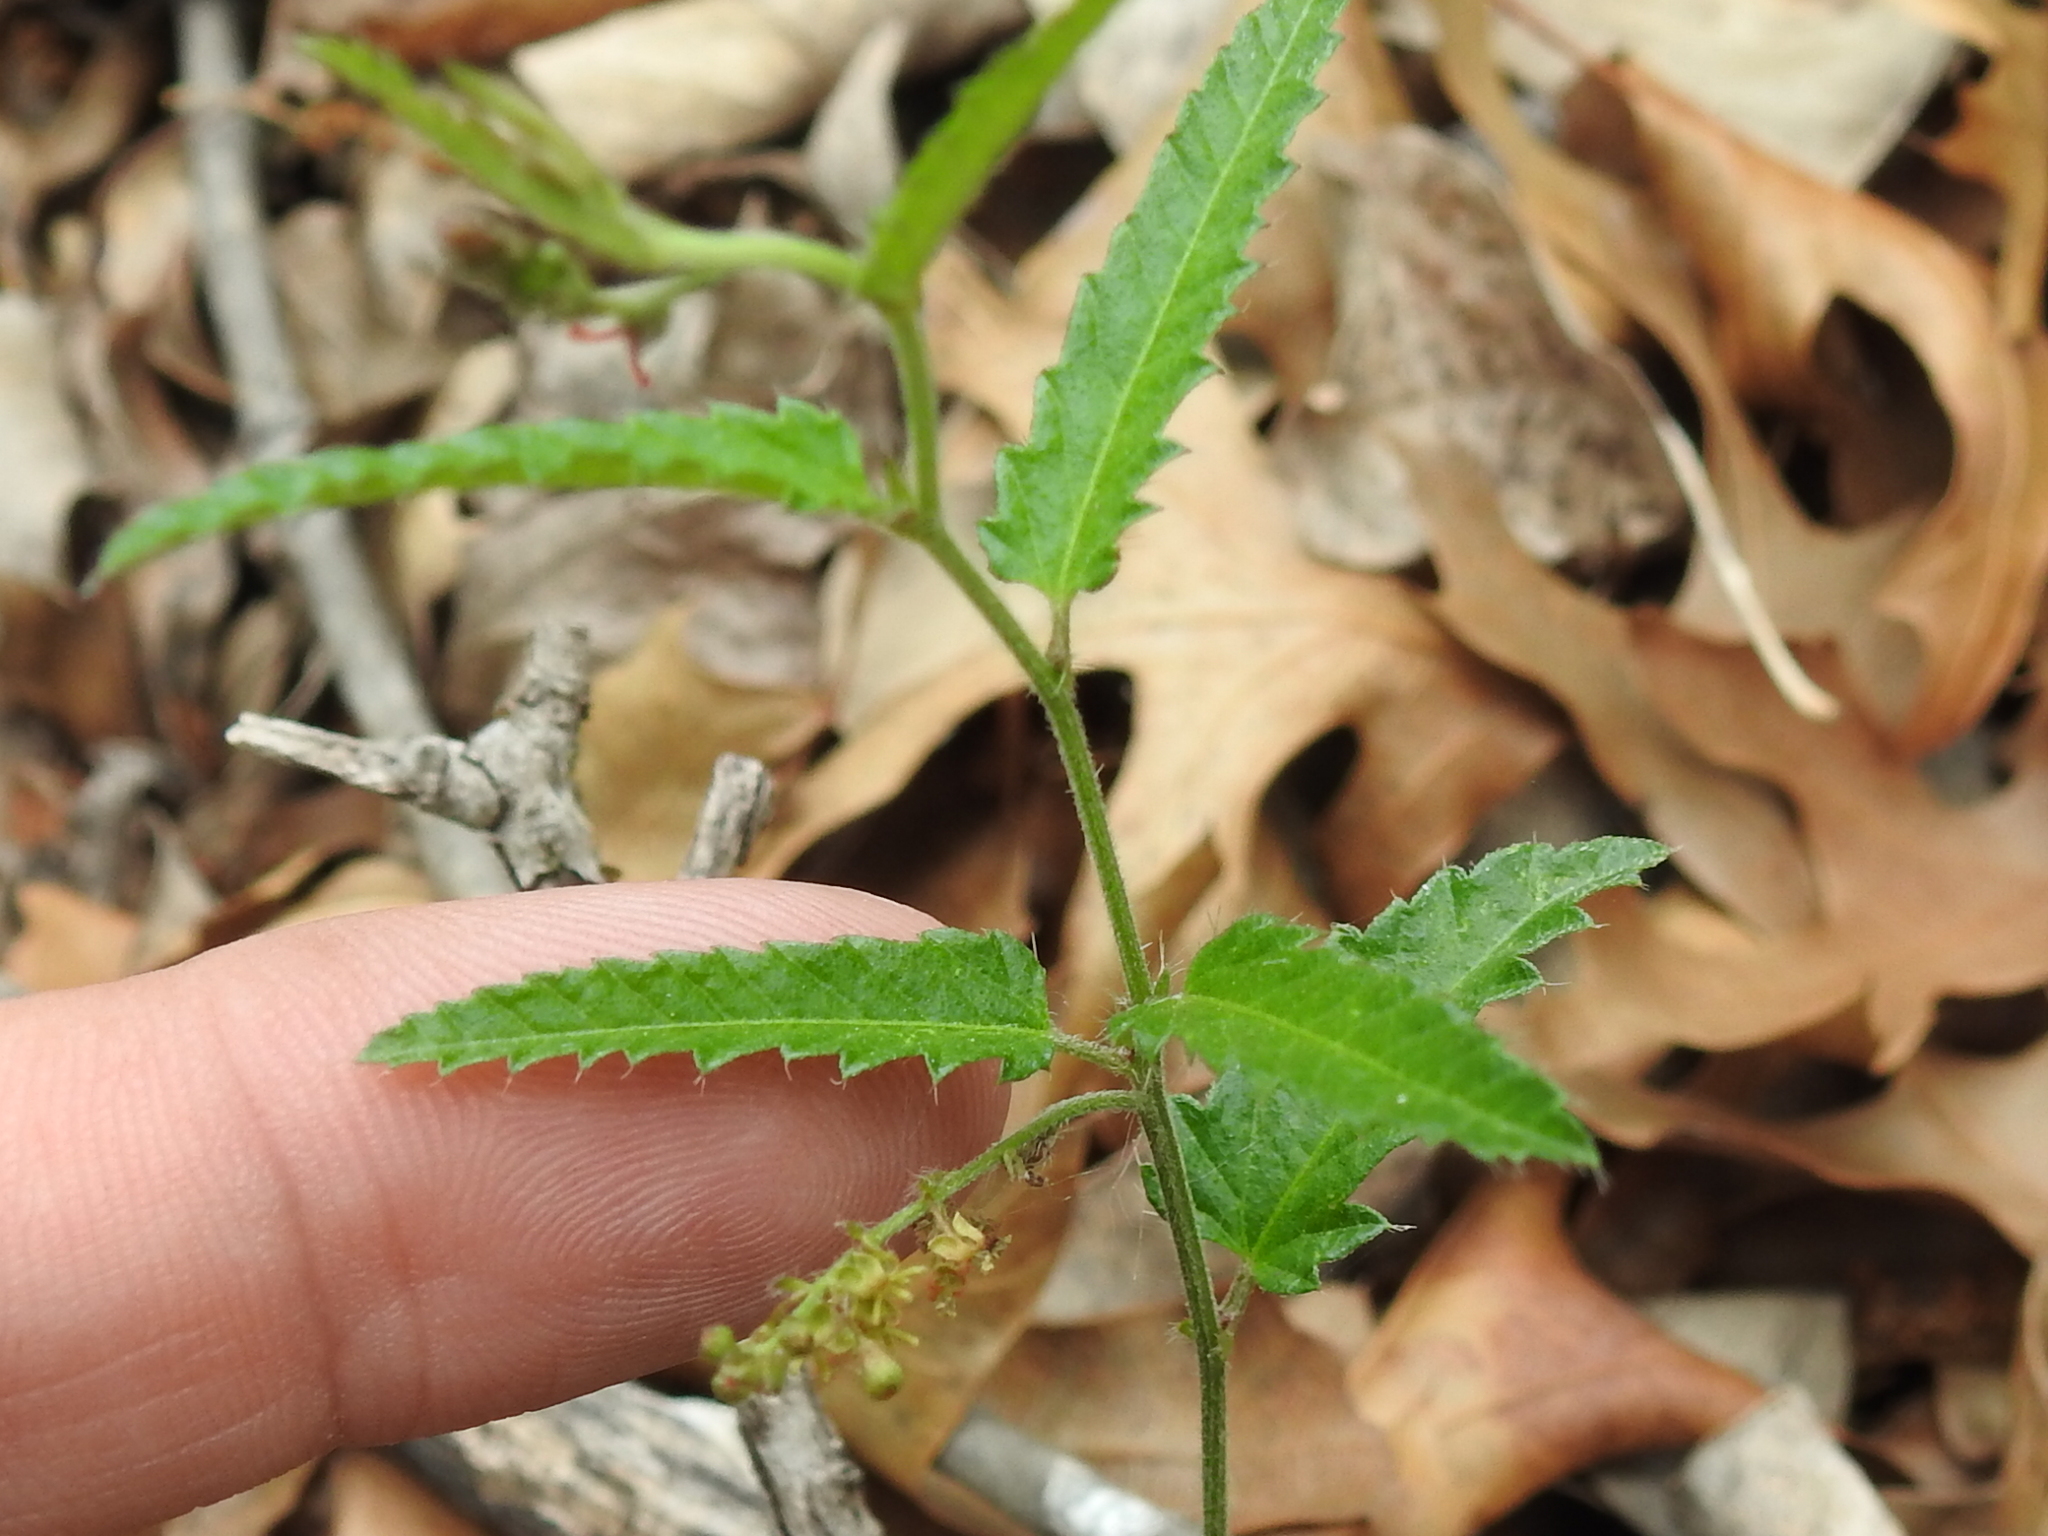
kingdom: Plantae
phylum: Tracheophyta
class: Magnoliopsida
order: Malpighiales
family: Euphorbiaceae
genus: Tragia
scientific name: Tragia ramosa
